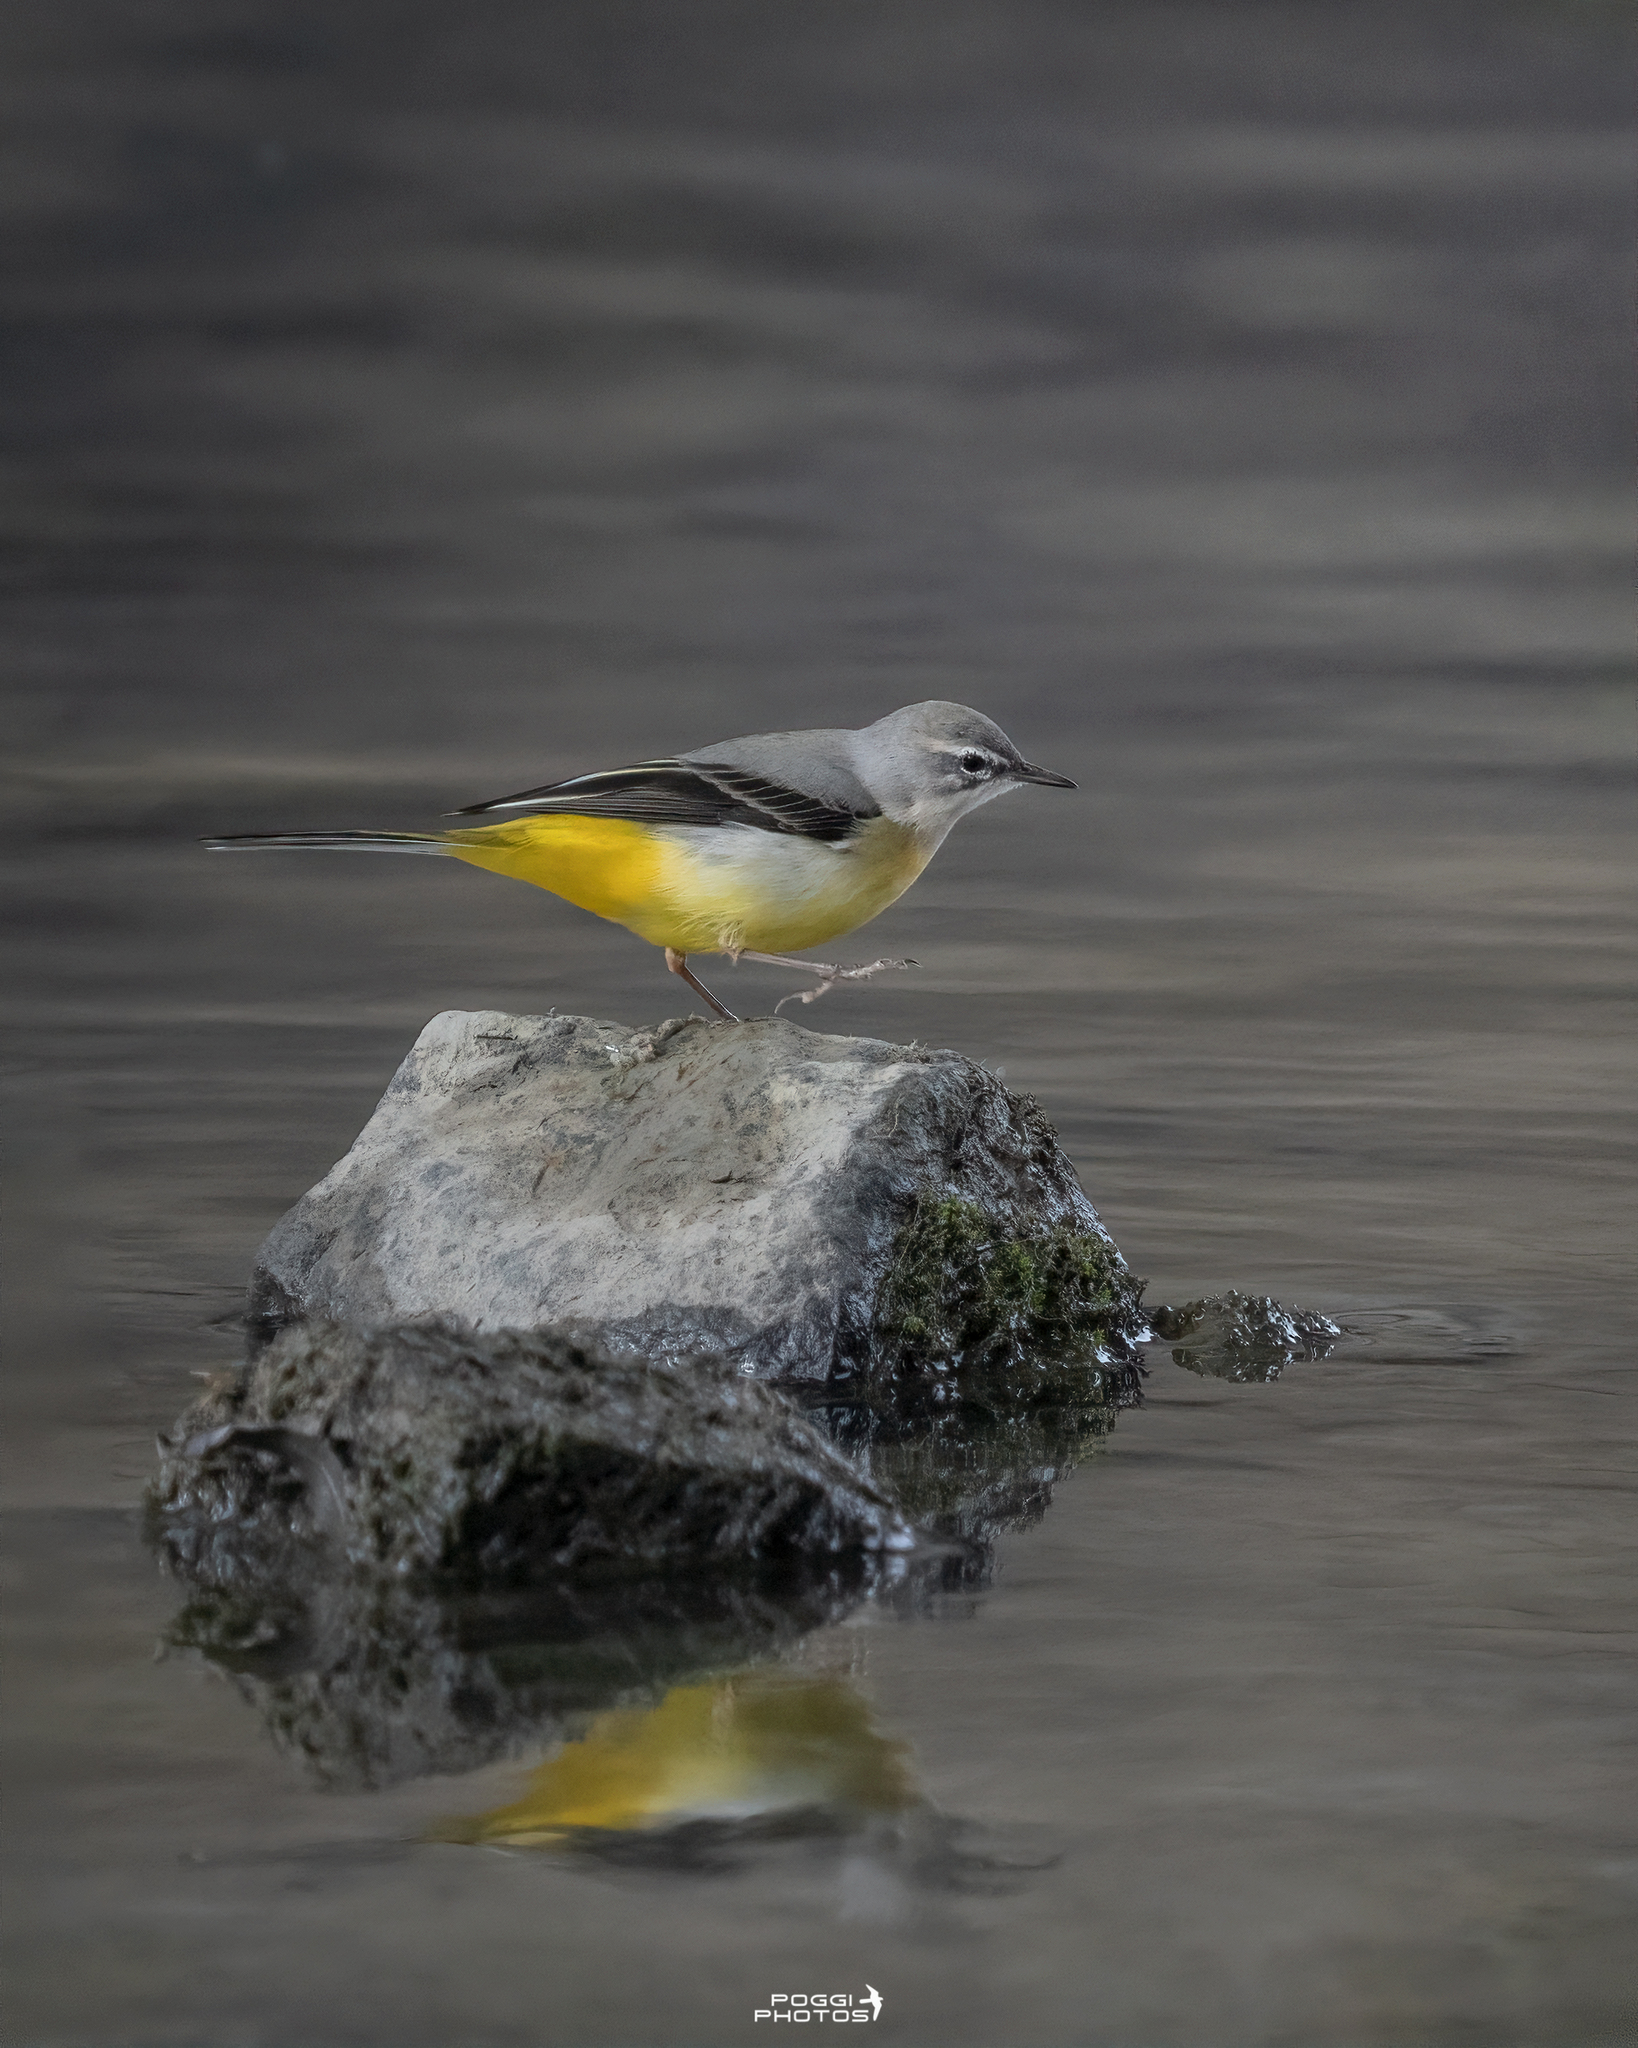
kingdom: Animalia
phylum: Chordata
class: Aves
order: Passeriformes
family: Motacillidae
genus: Motacilla
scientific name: Motacilla cinerea
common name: Grey wagtail
